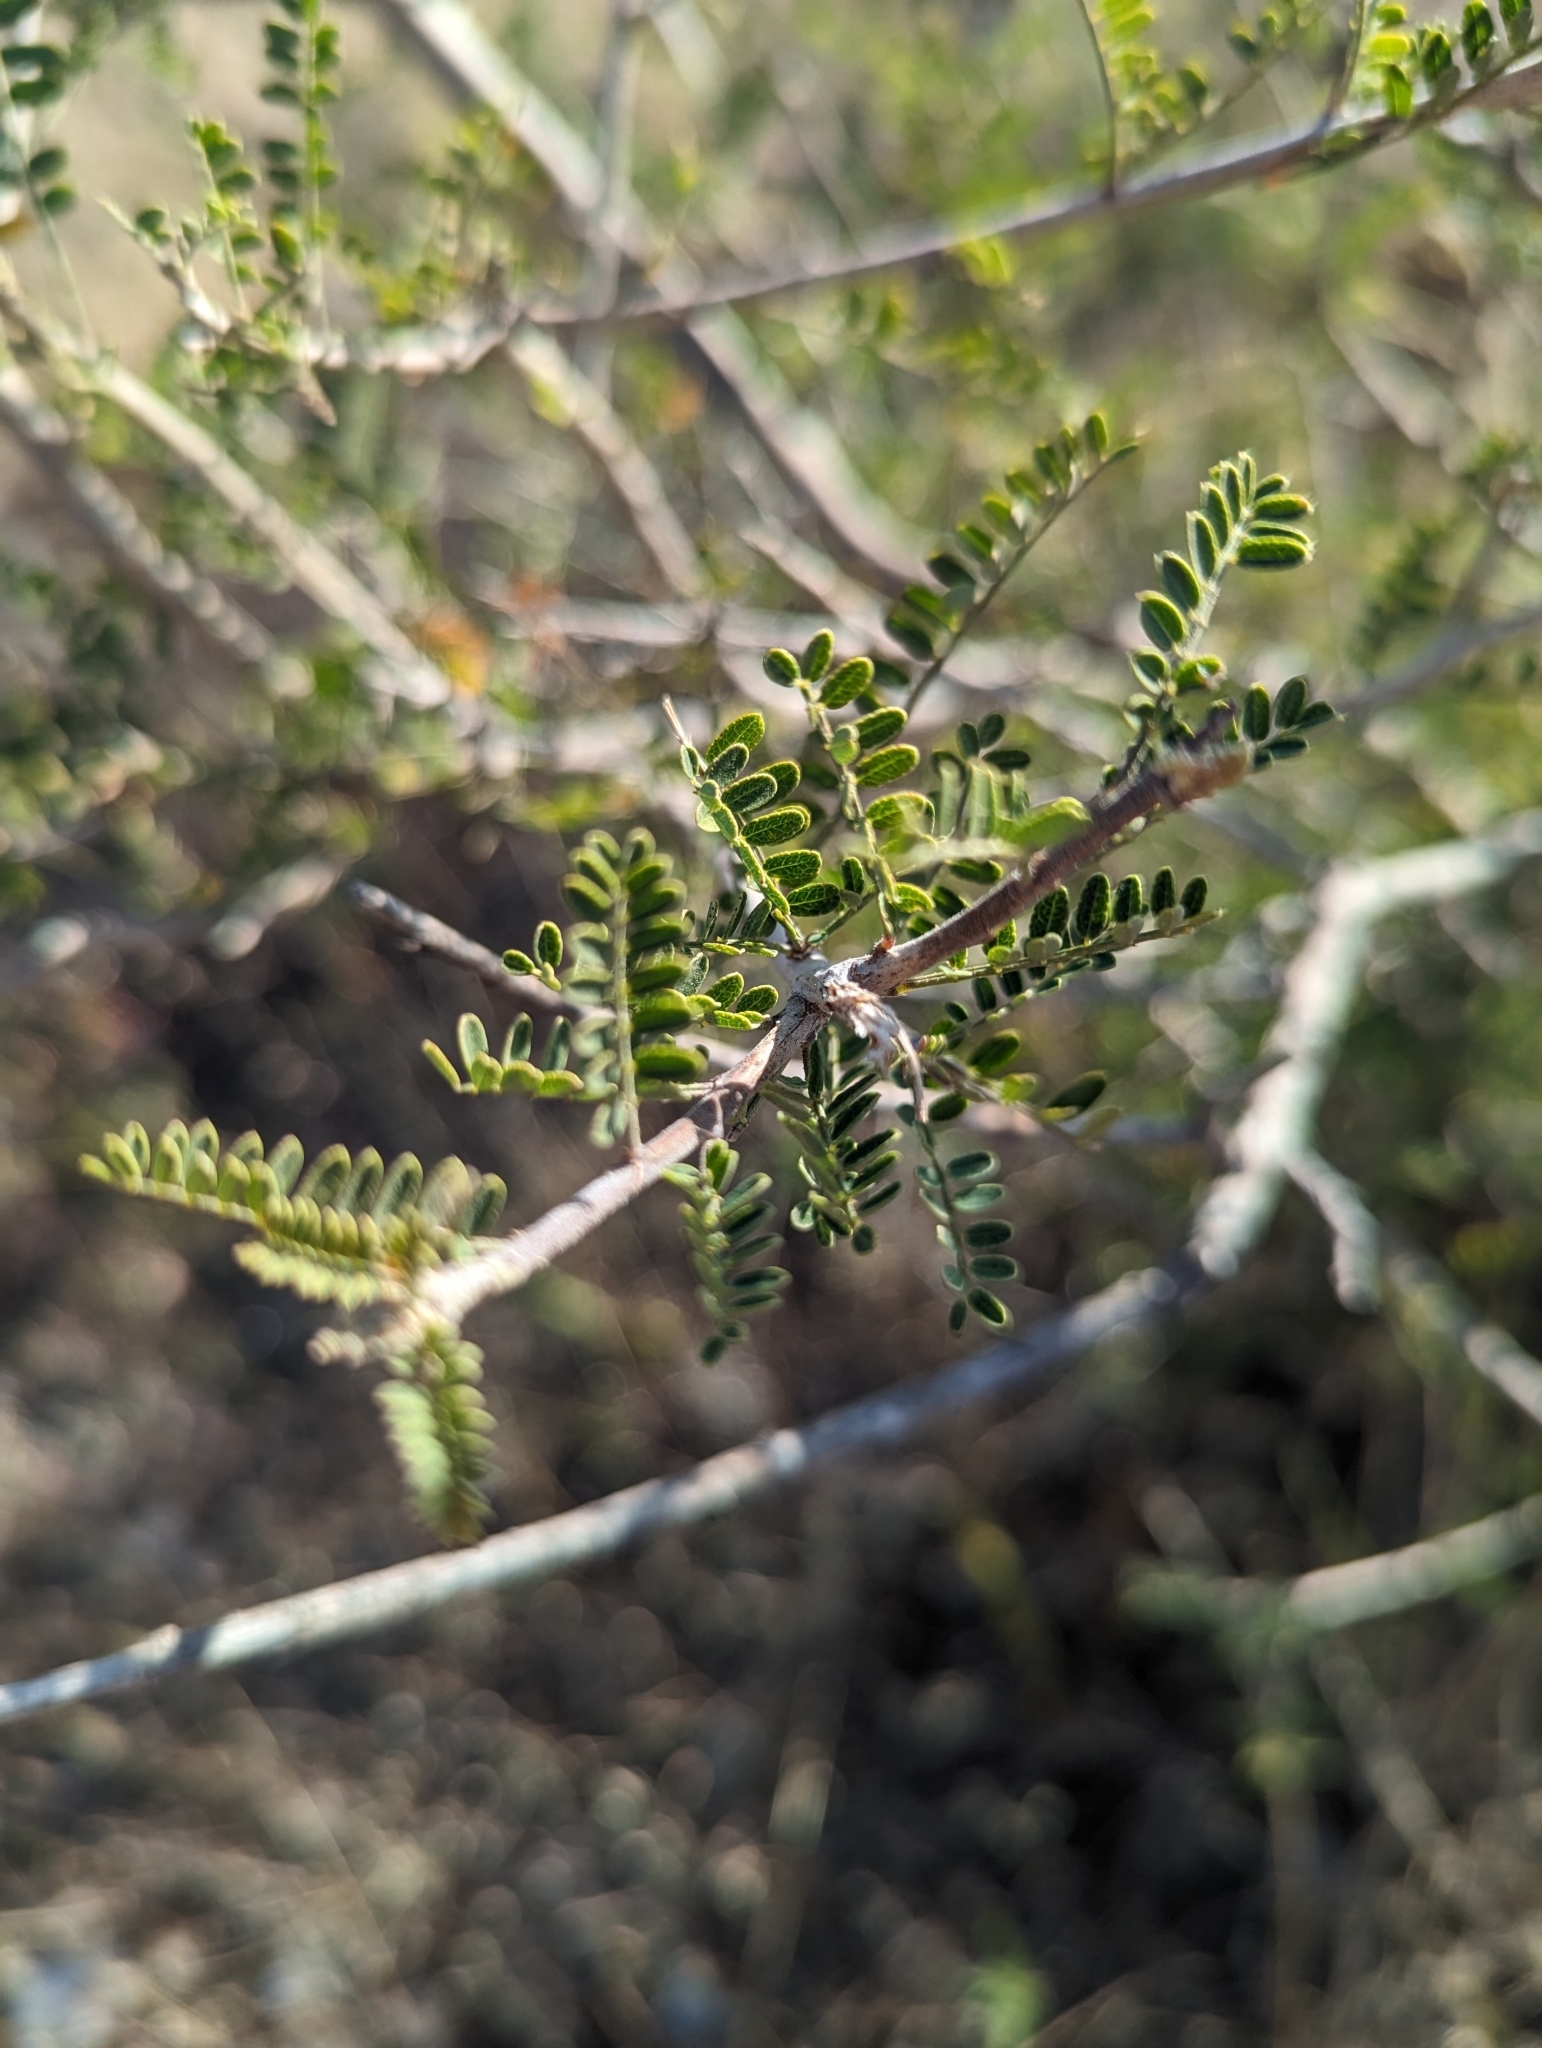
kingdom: Plantae
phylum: Tracheophyta
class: Magnoliopsida
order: Fabales
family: Fabaceae
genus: Eysenhardtia
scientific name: Eysenhardtia texana
